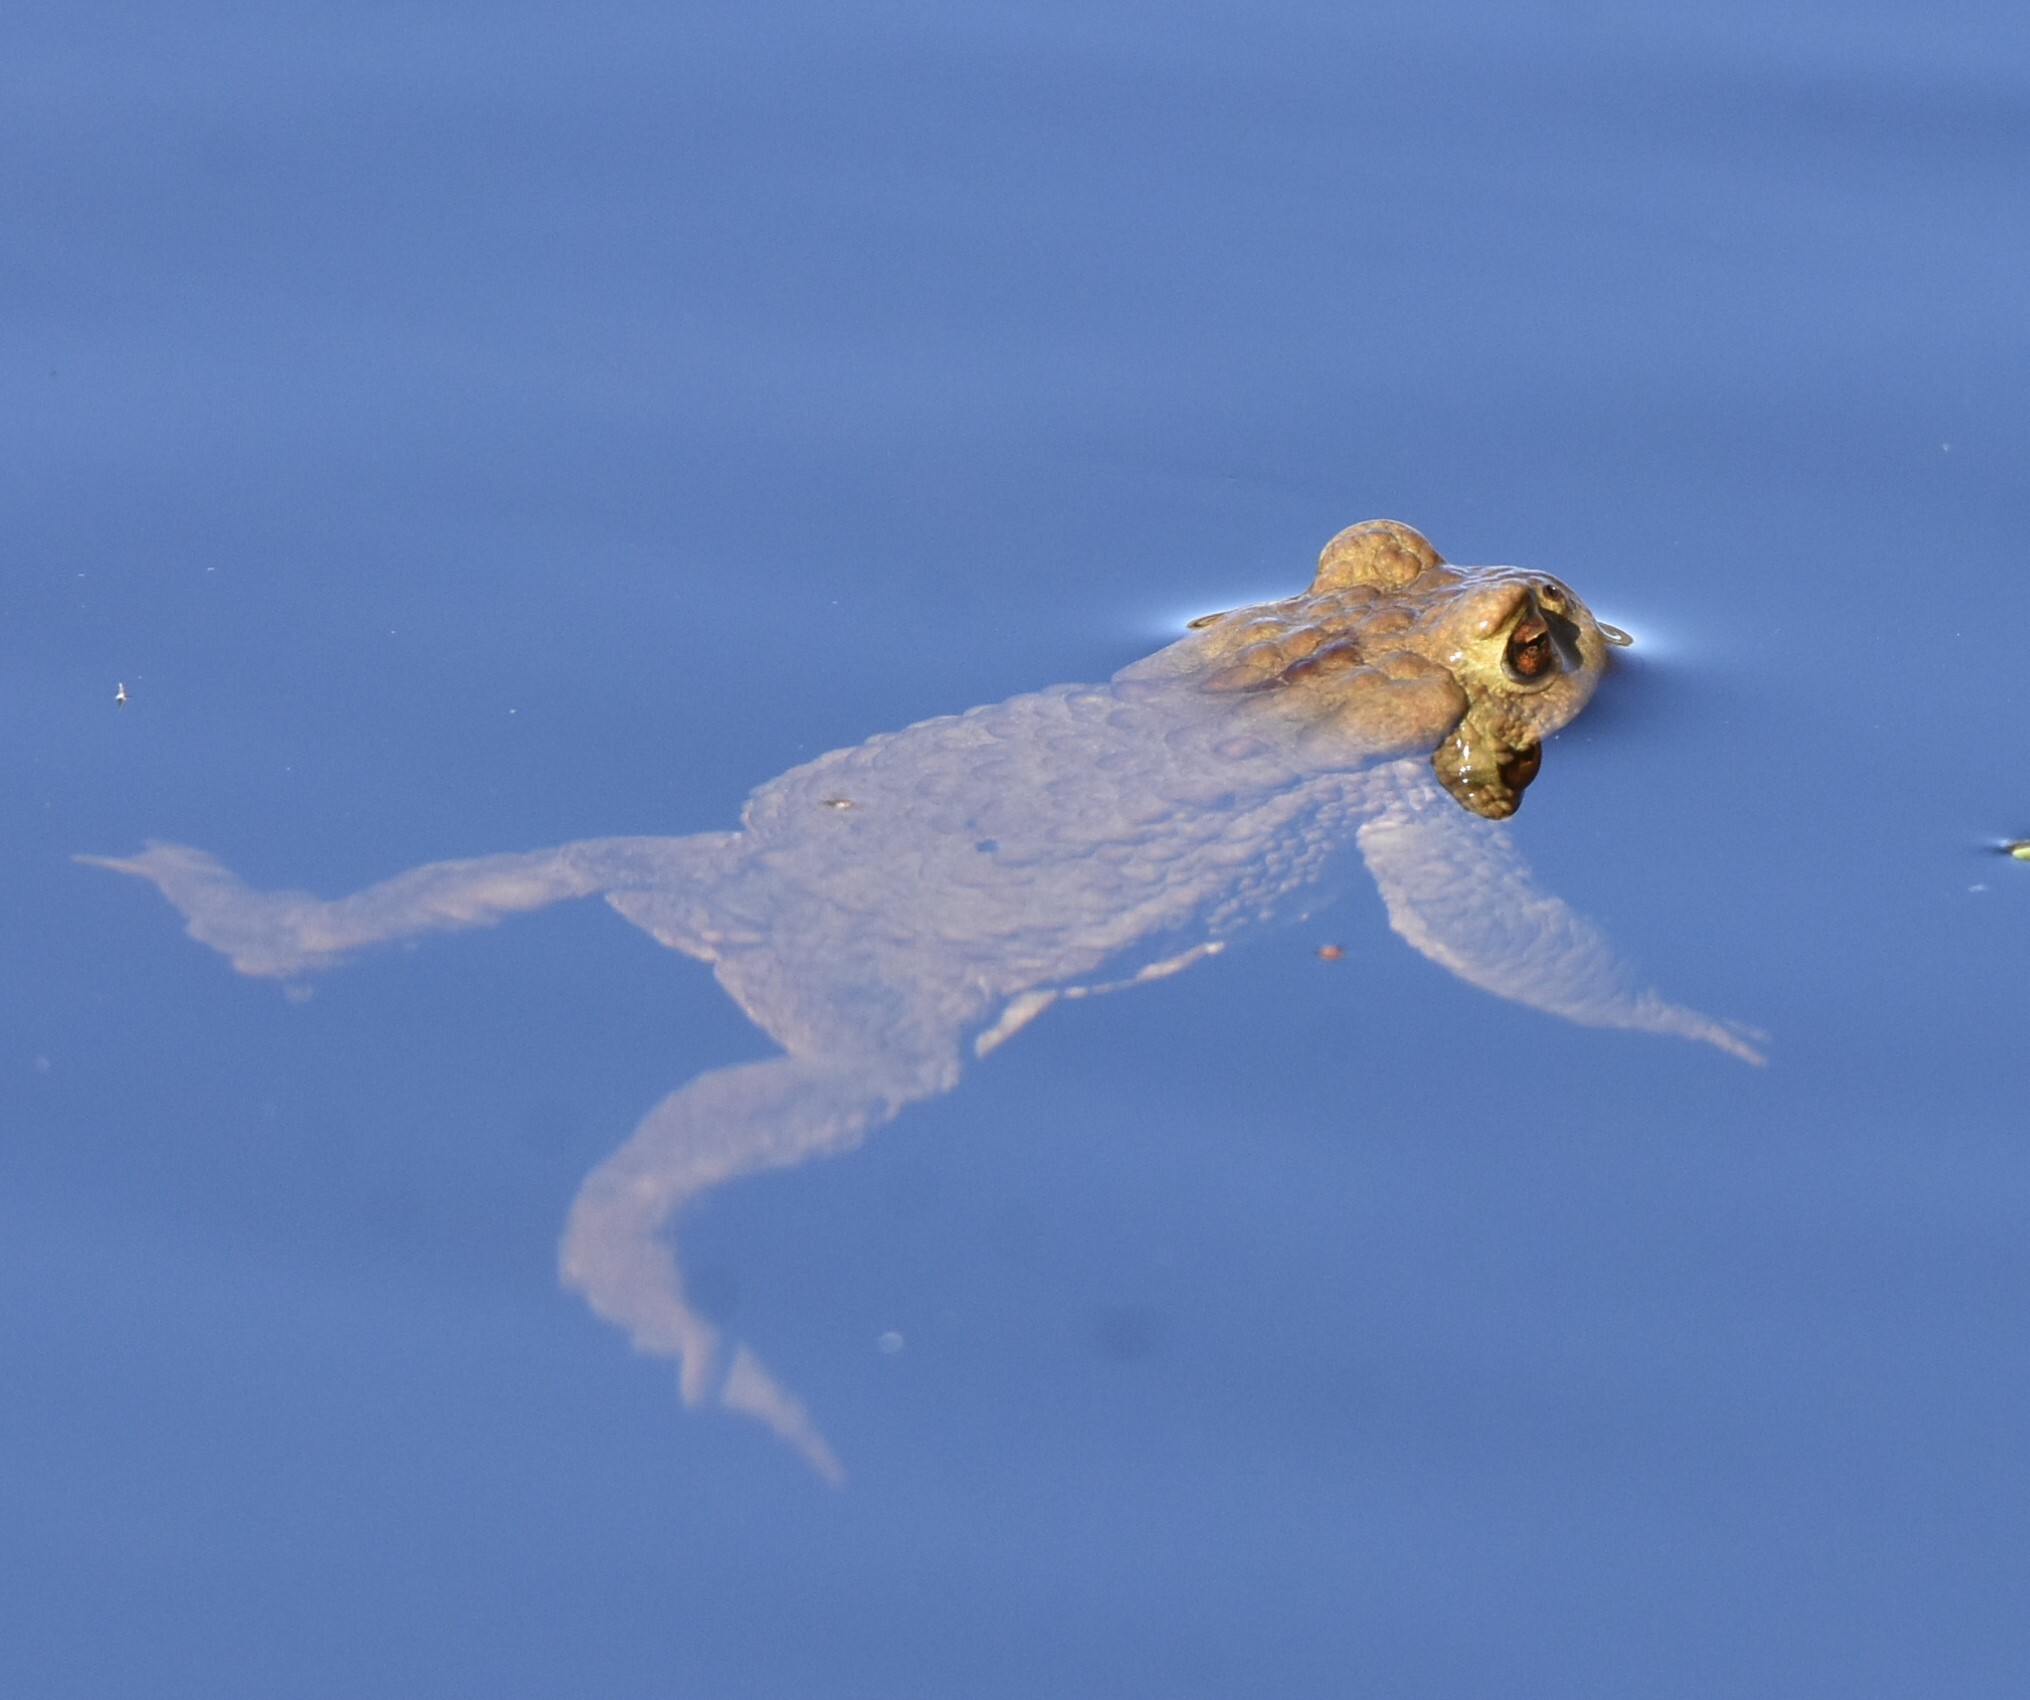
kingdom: Animalia
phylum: Chordata
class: Amphibia
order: Anura
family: Bufonidae
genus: Bufo
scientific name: Bufo bufo
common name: Common toad
